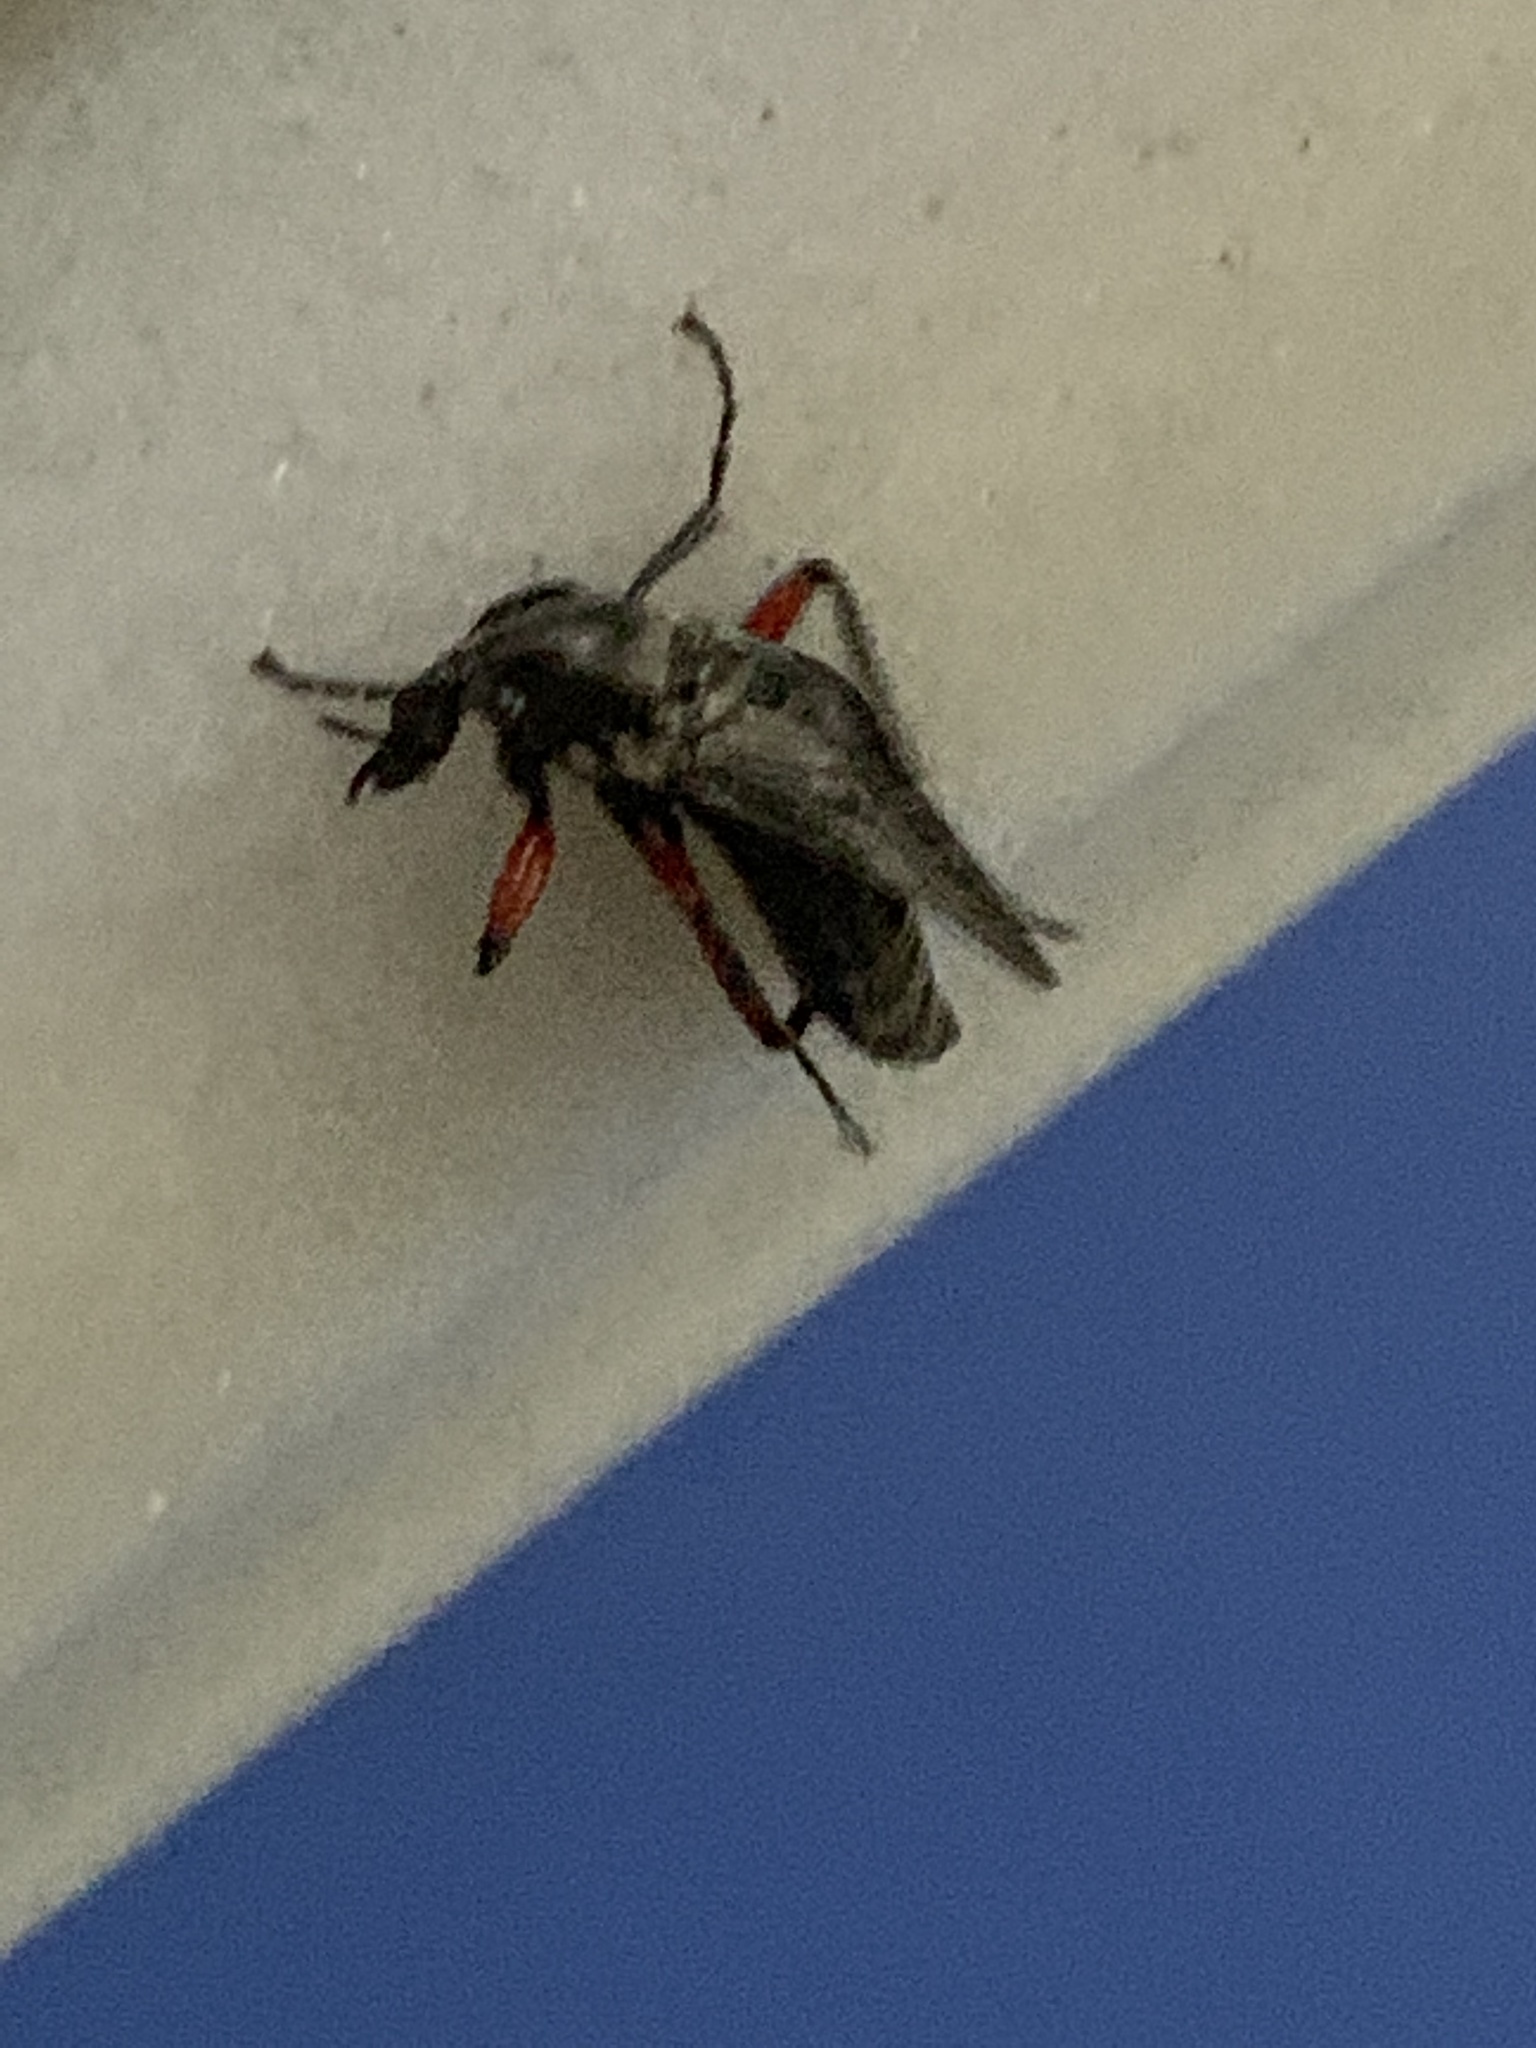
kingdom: Animalia
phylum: Arthropoda
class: Insecta
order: Diptera
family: Bibionidae
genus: Bibio
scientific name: Bibio femoratus
